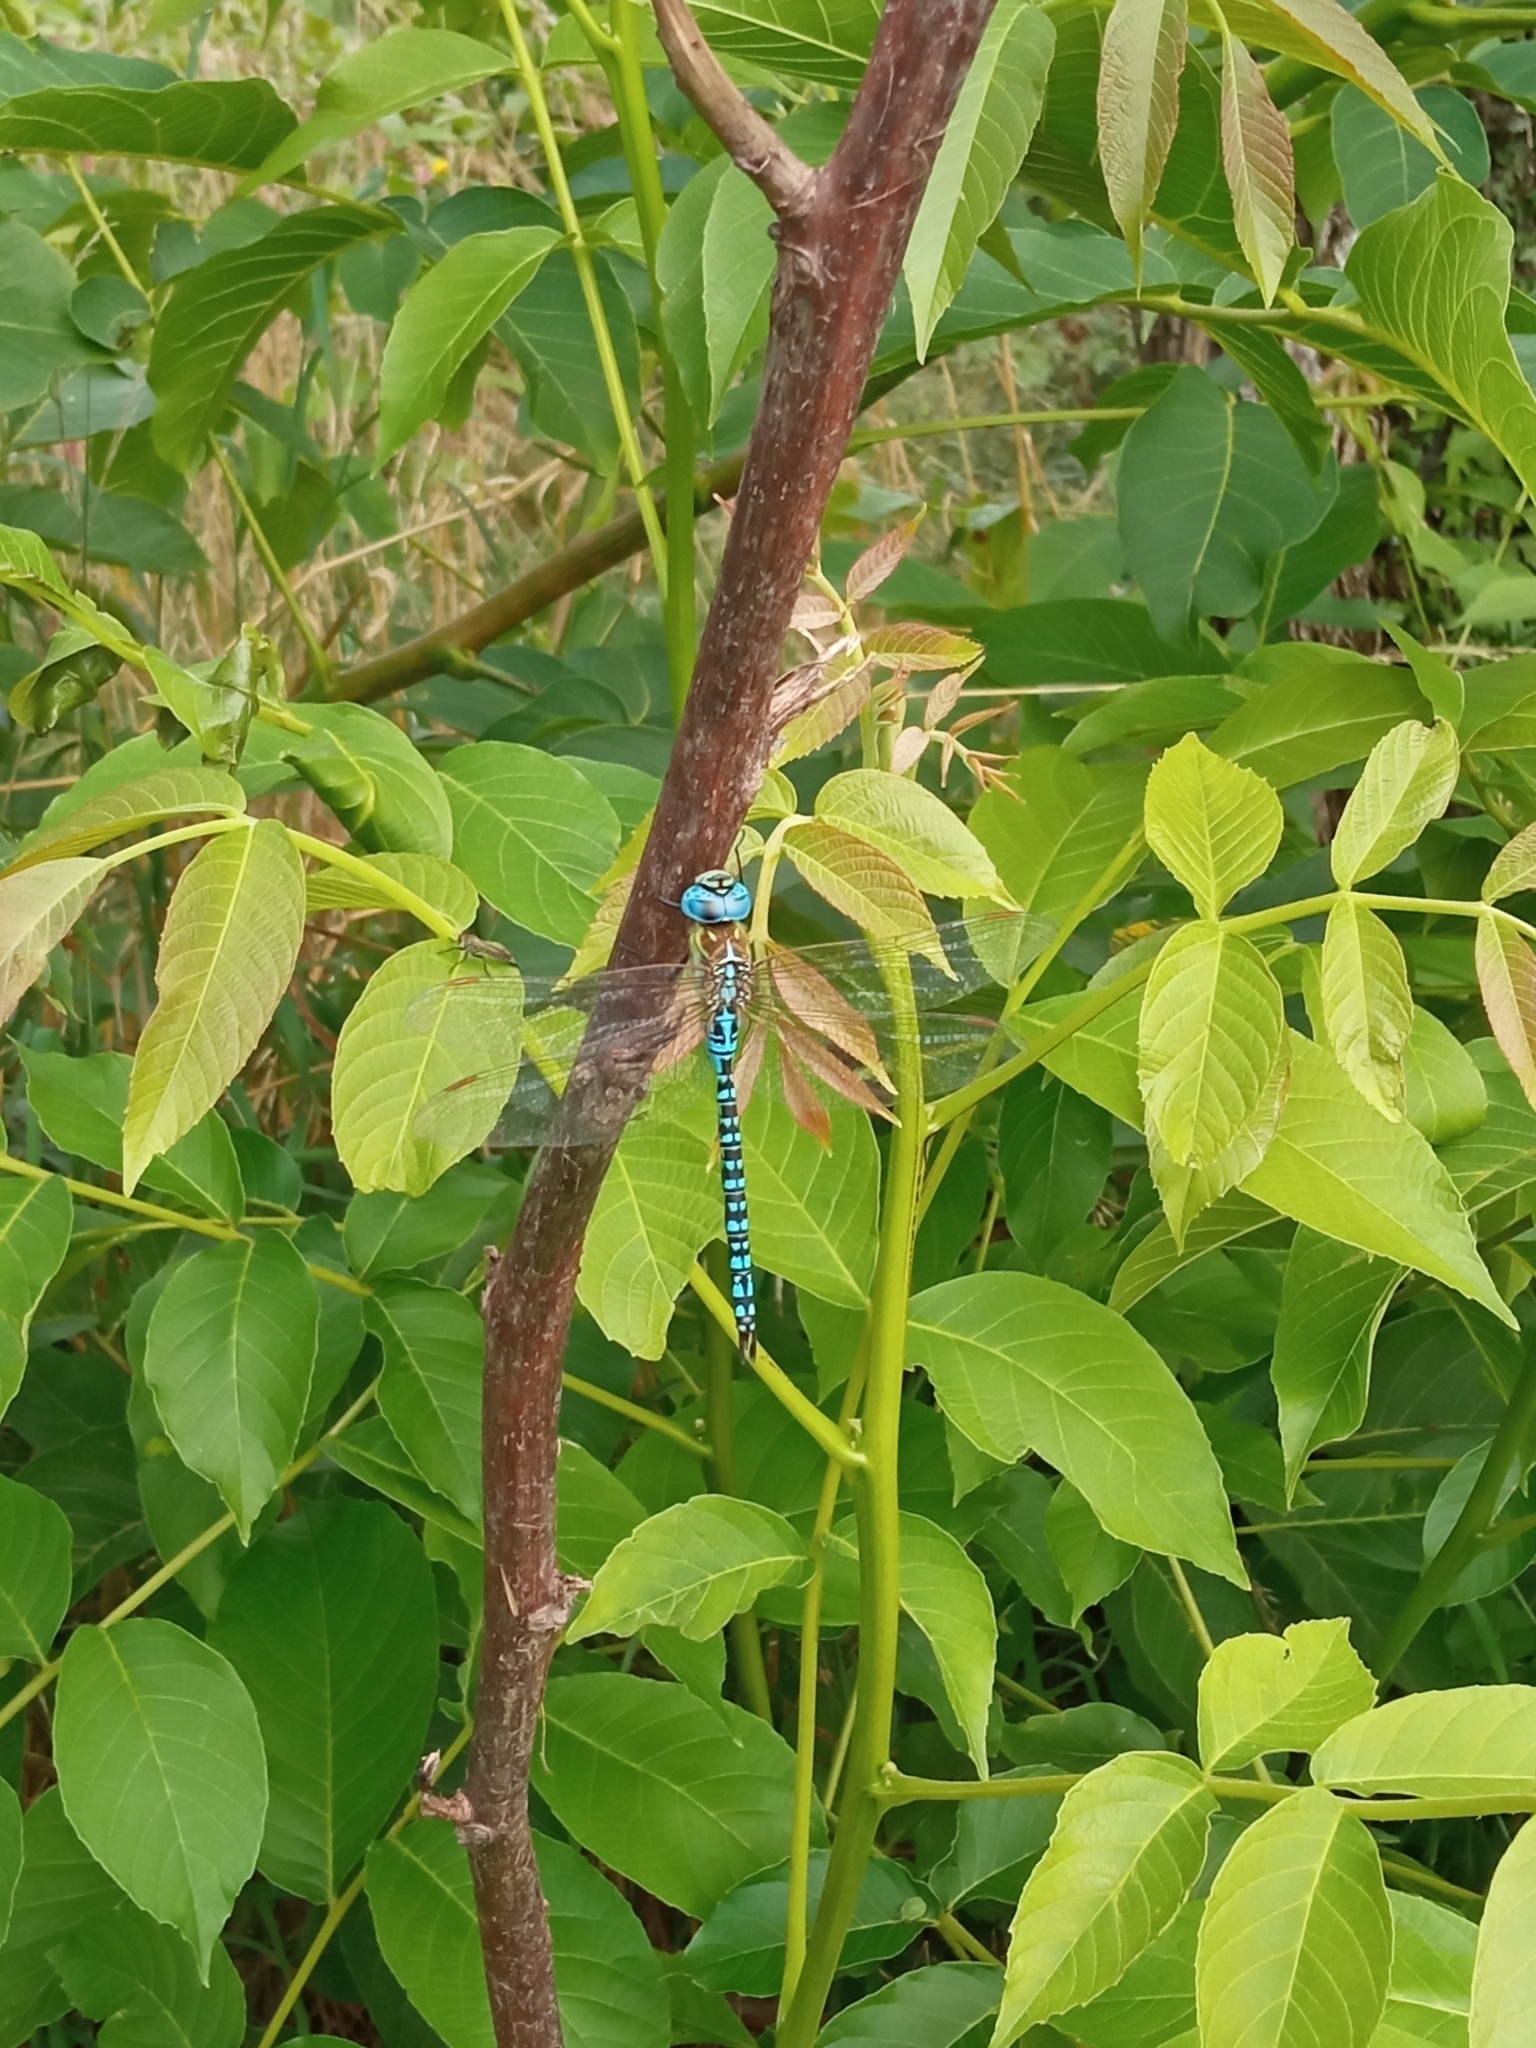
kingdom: Animalia
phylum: Arthropoda
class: Insecta
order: Odonata
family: Aeshnidae
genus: Aeshna
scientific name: Aeshna affinis
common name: Southern migrant hawker
